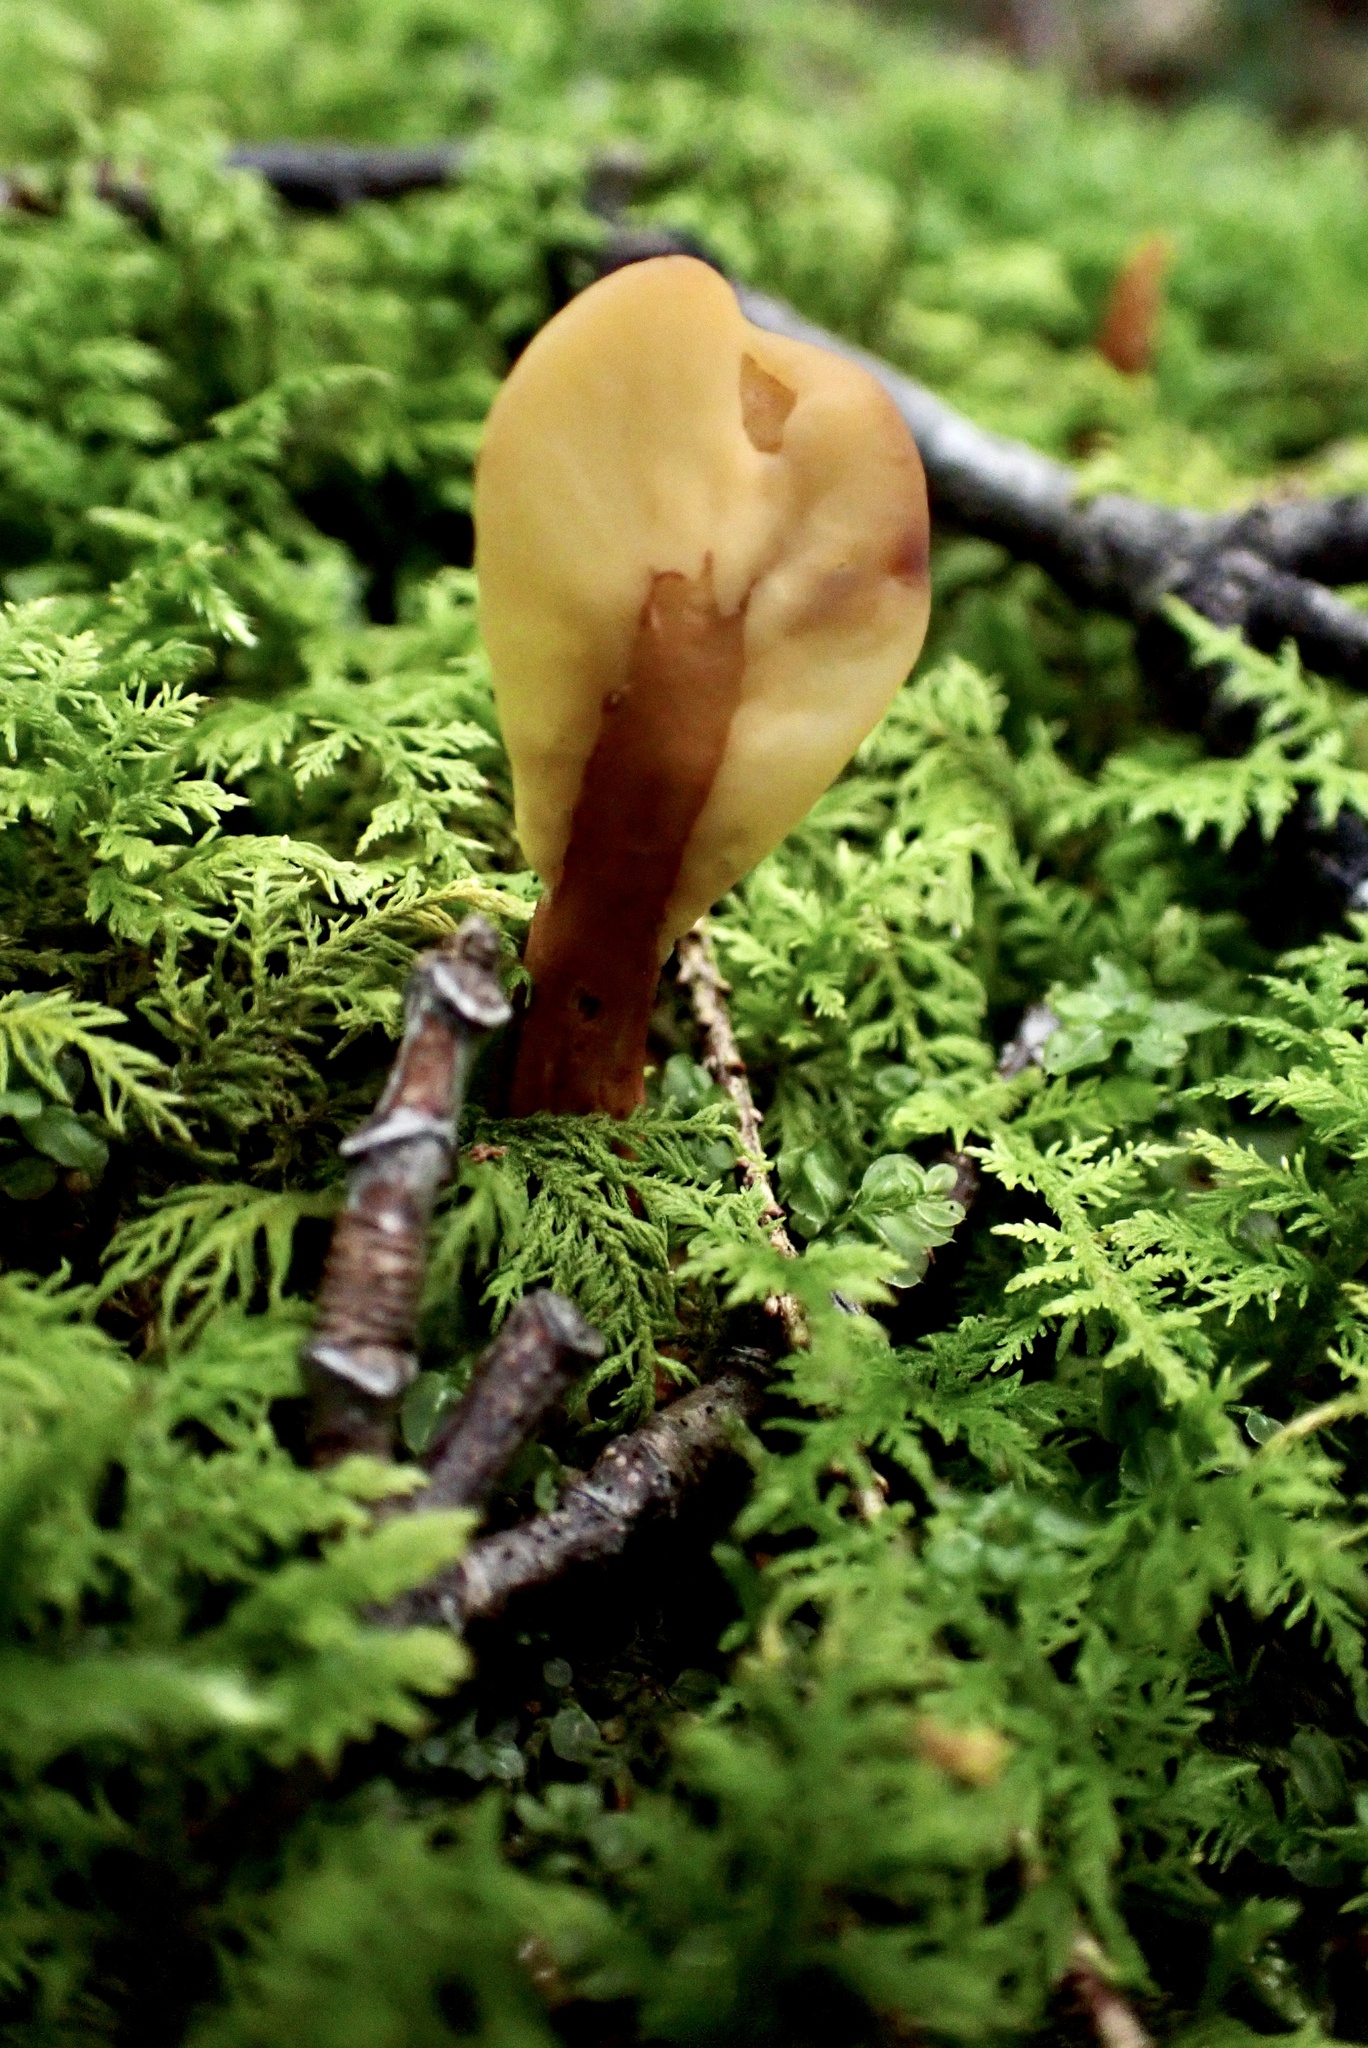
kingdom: Fungi
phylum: Ascomycota
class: Leotiomycetes
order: Rhytismatales
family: Cudoniaceae
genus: Spathulariopsis
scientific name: Spathulariopsis velutipes
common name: Velvet-foot fairy fan
